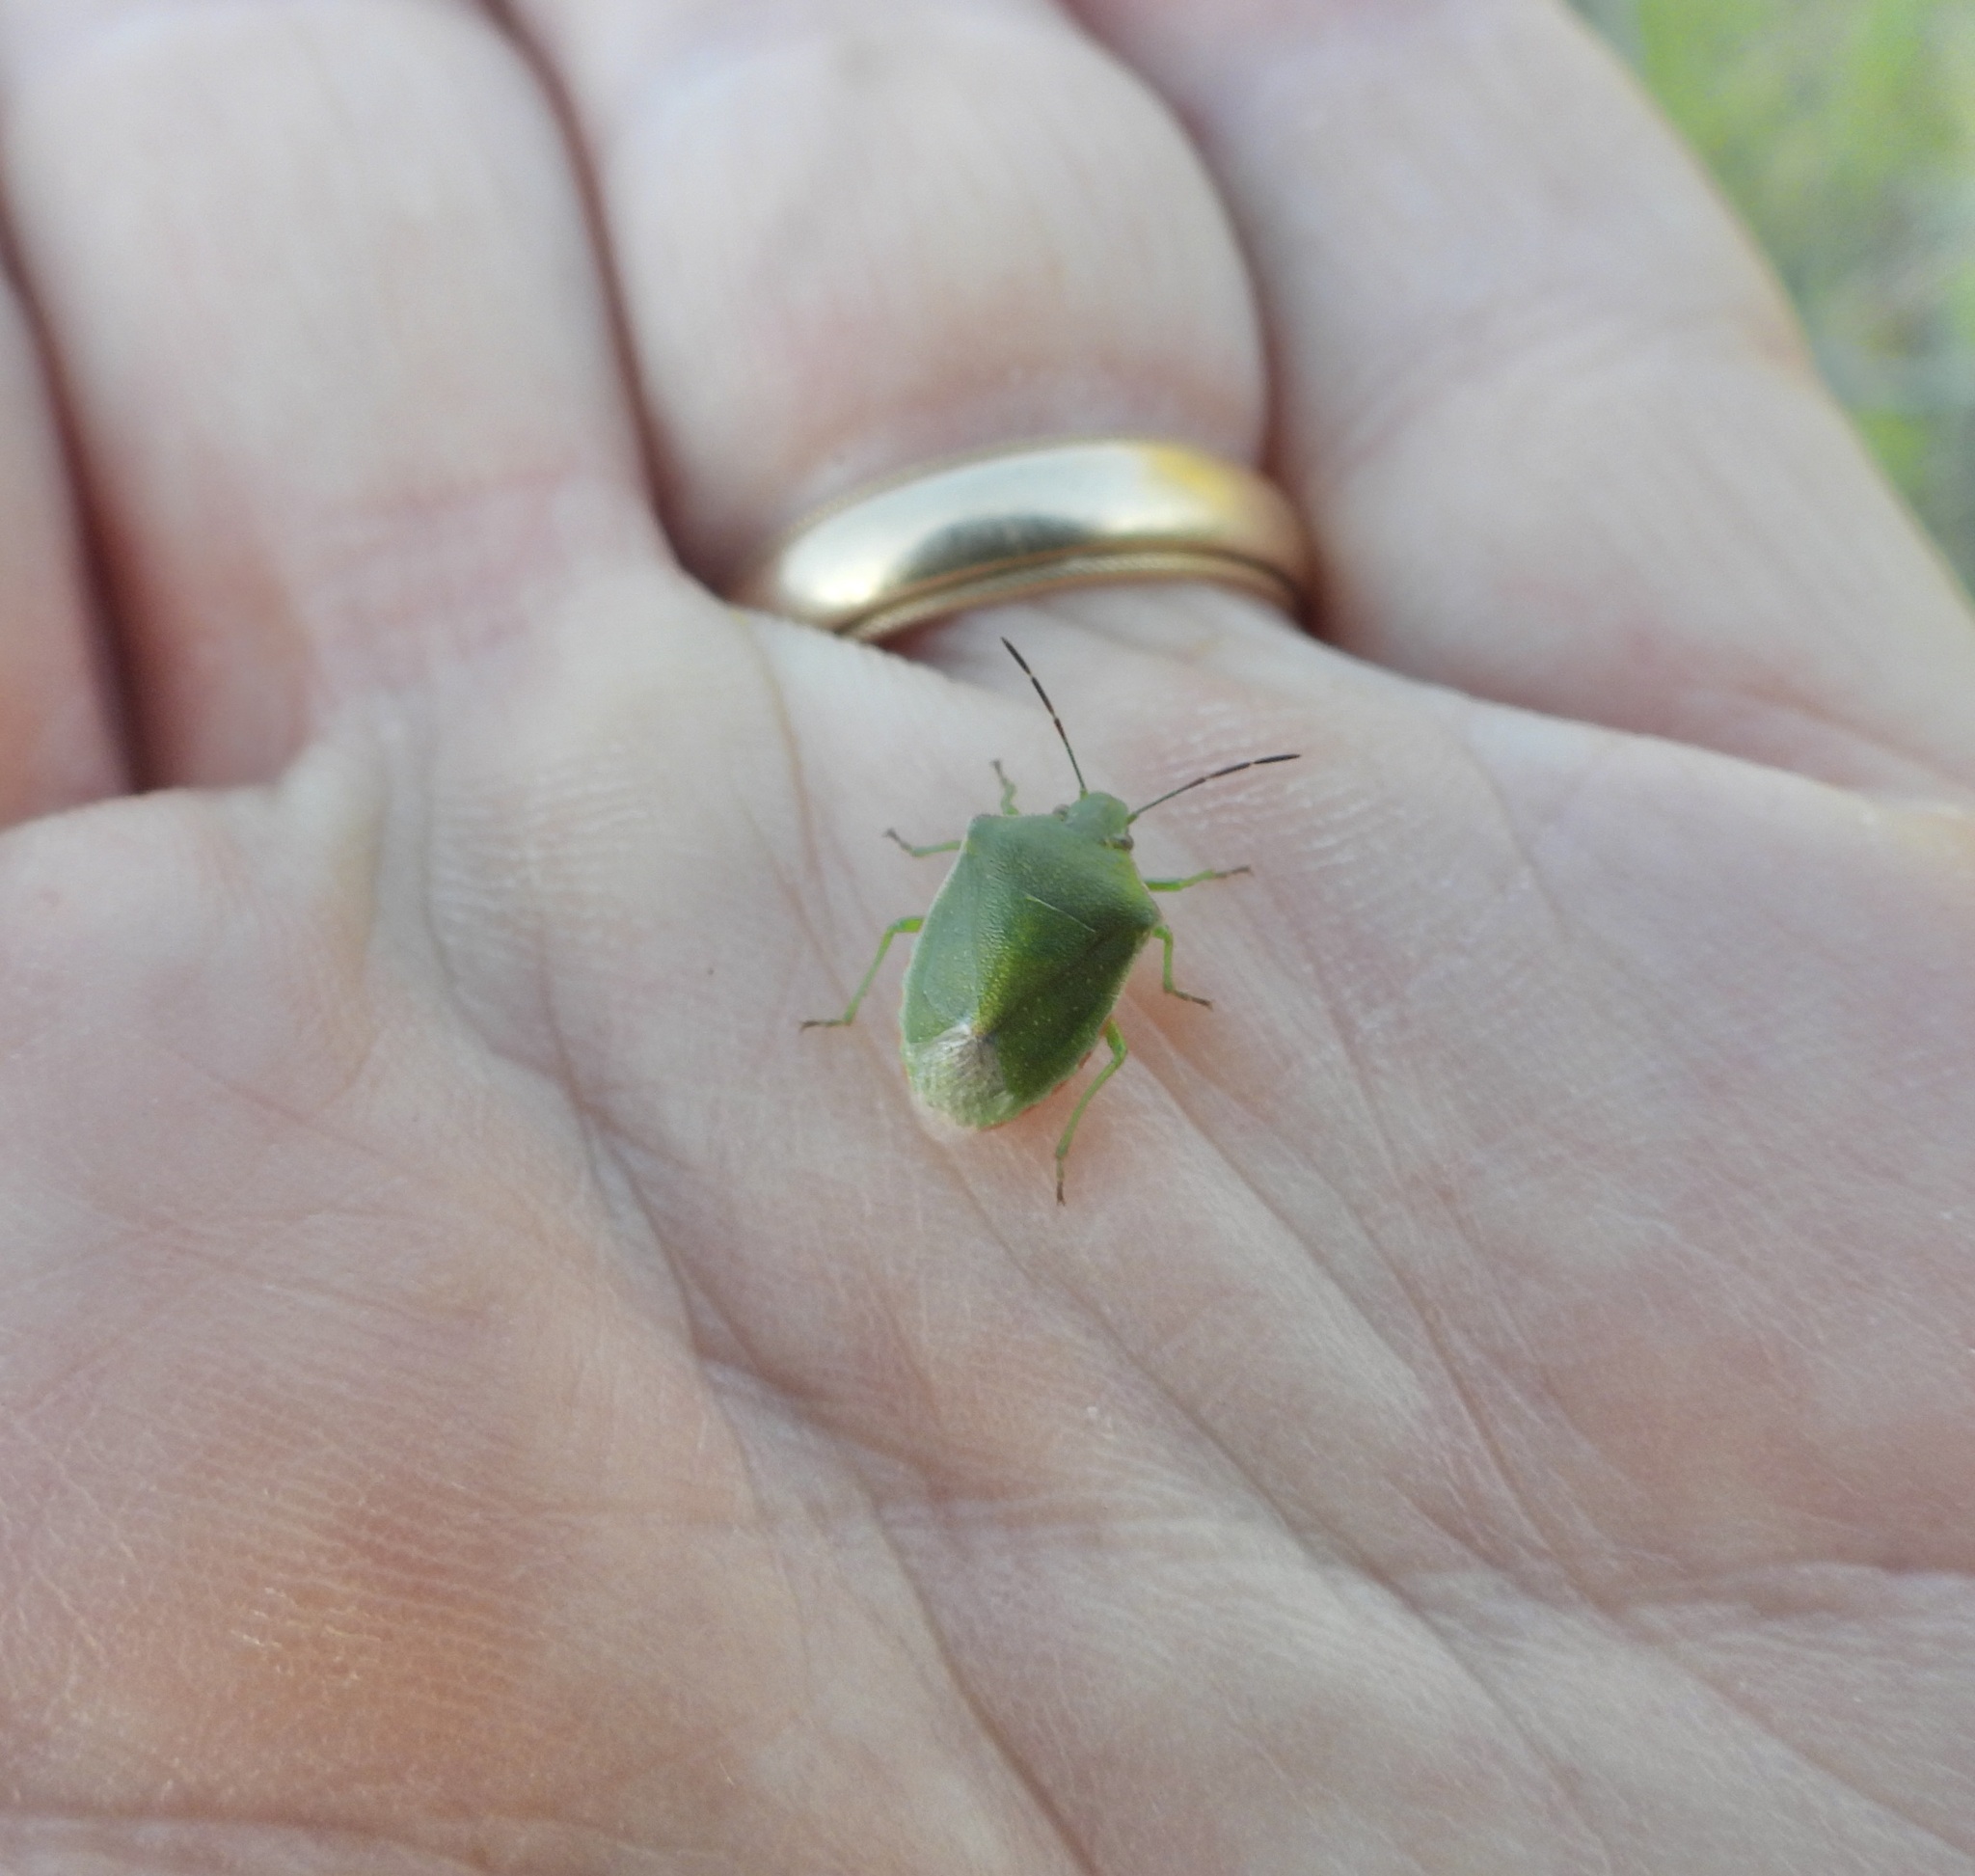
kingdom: Animalia
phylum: Arthropoda
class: Insecta
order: Hemiptera
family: Pentatomidae
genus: Thyanta
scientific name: Thyanta custator
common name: Stink bug
